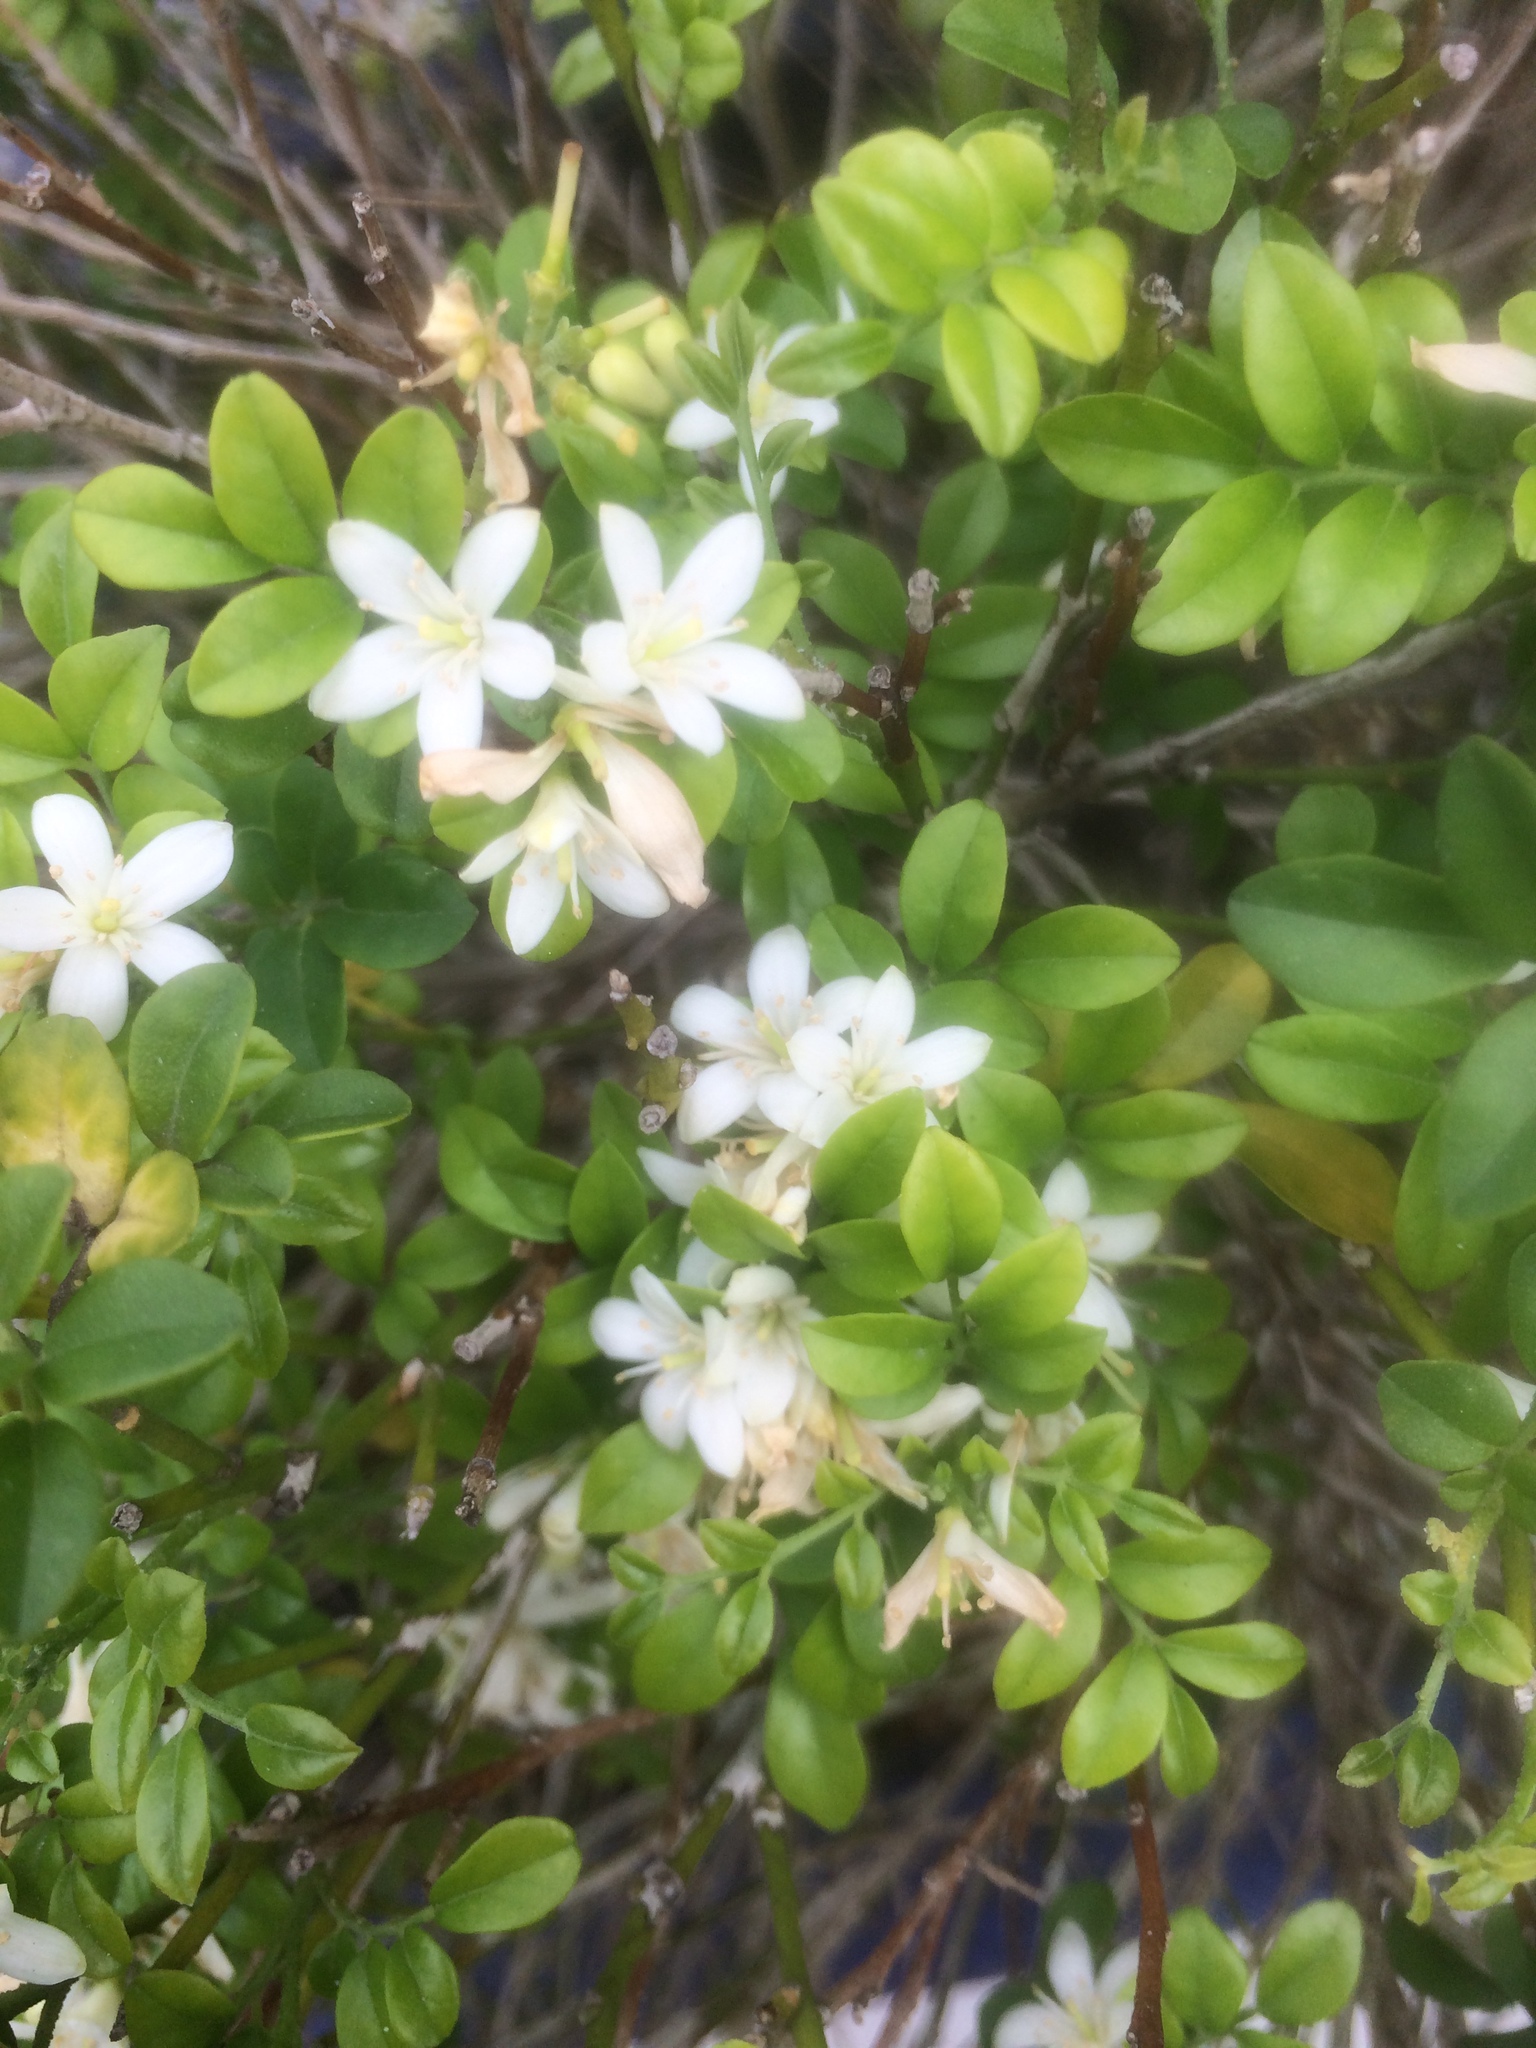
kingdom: Plantae
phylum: Tracheophyta
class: Magnoliopsida
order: Sapindales
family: Rutaceae
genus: Murraya
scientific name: Murraya paniculata
